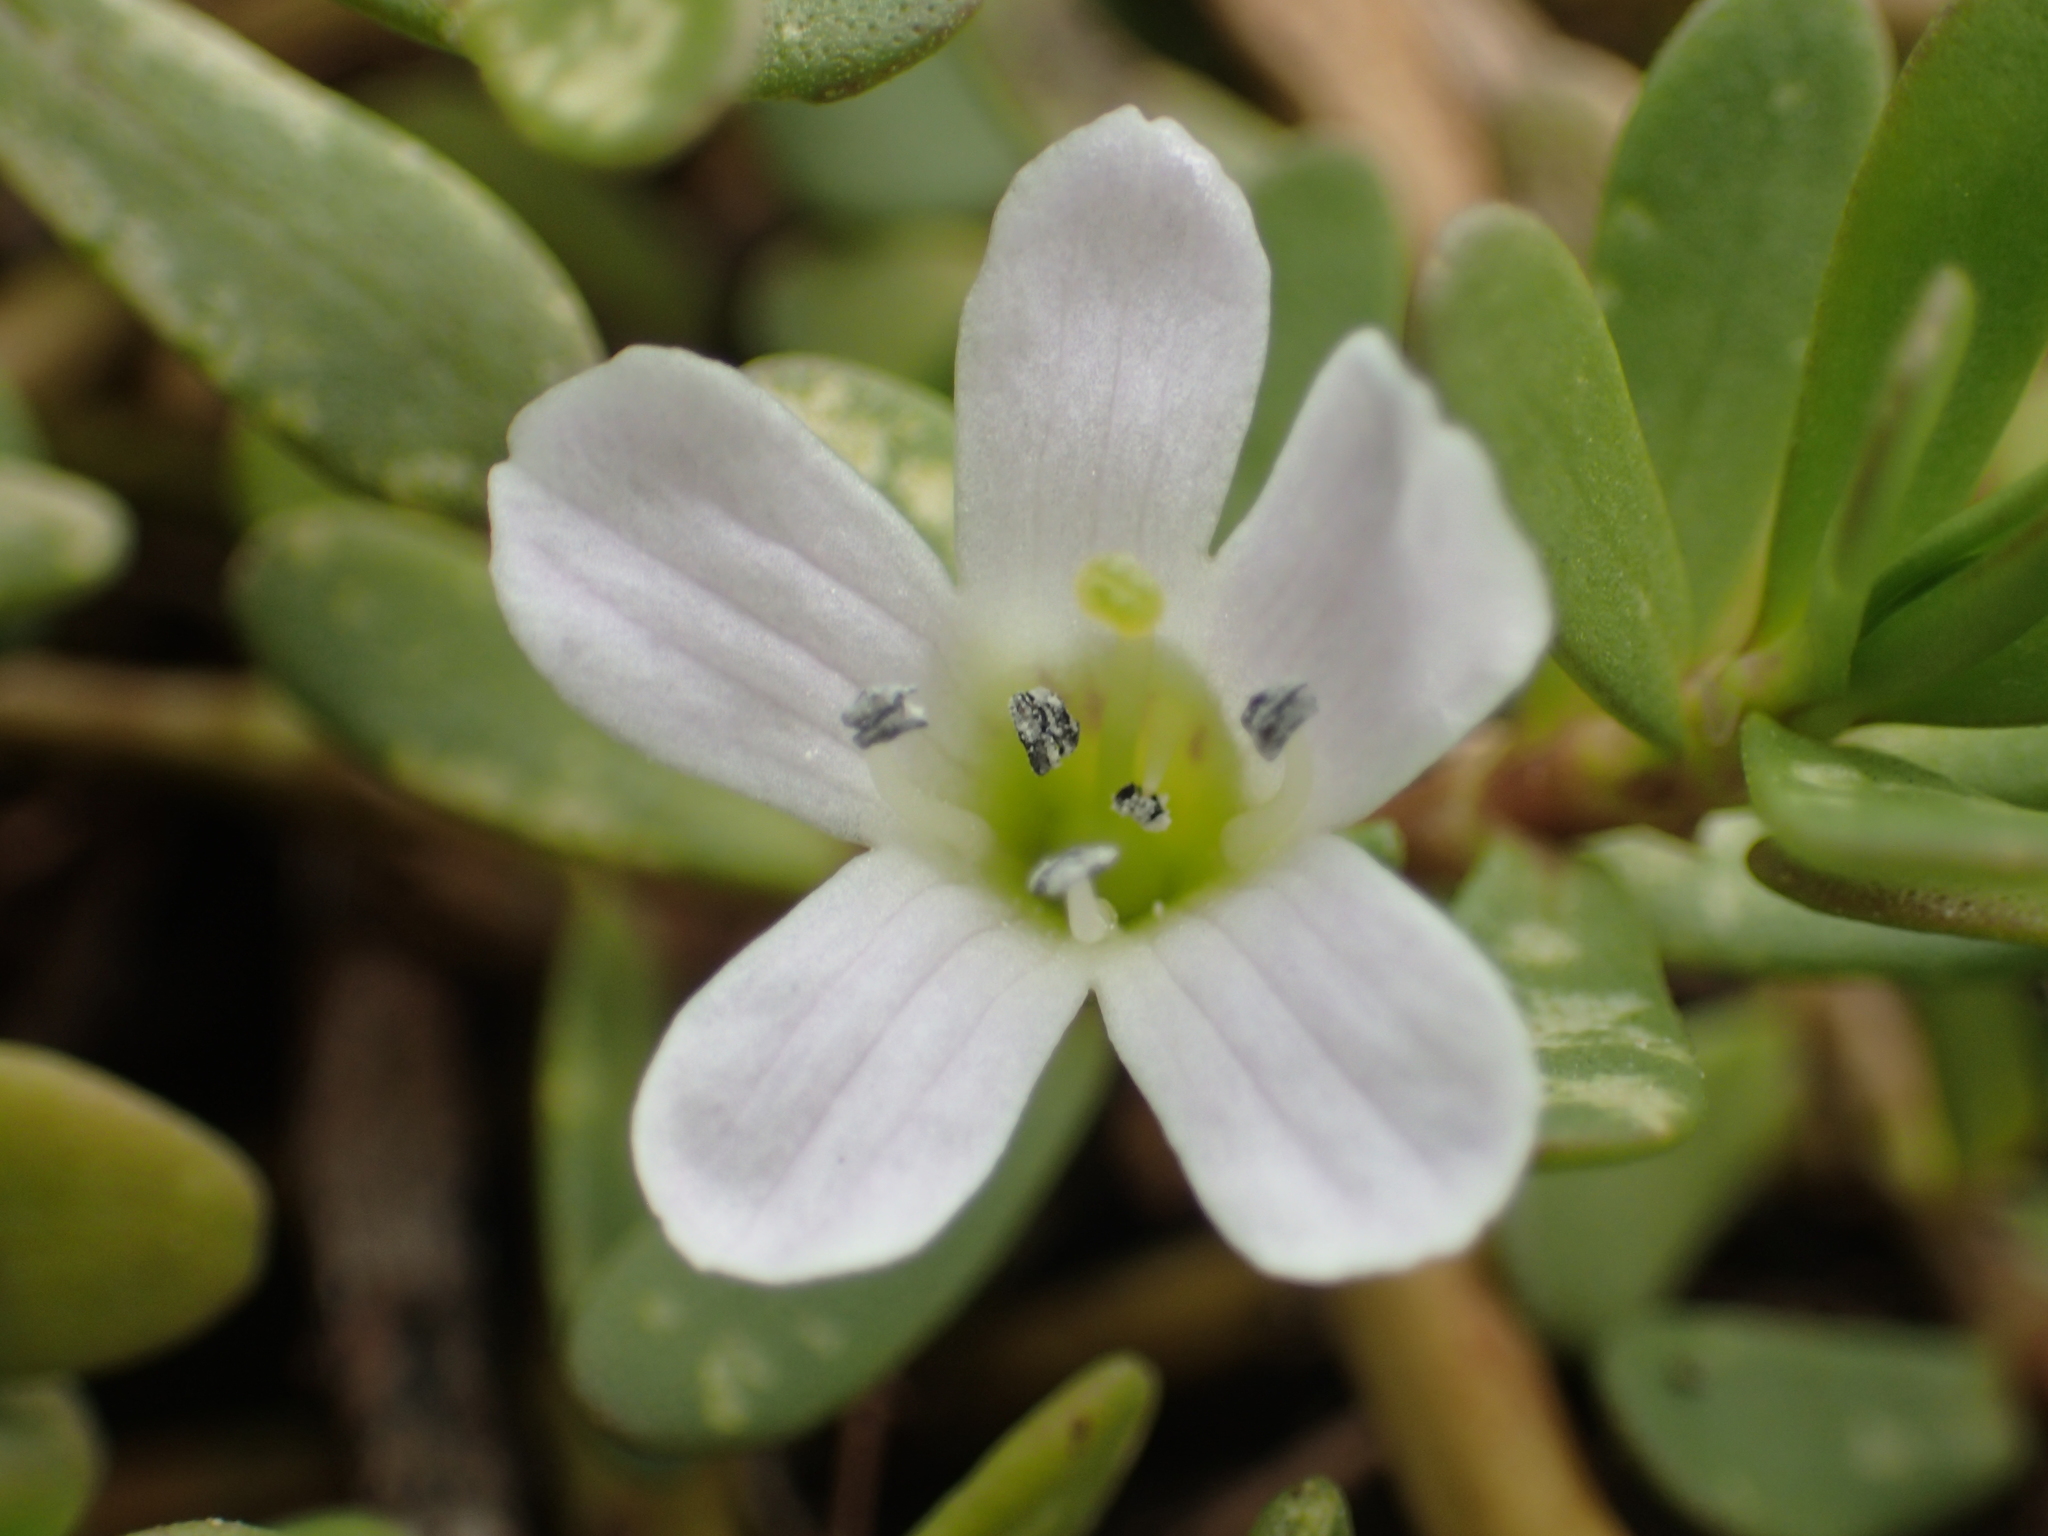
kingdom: Plantae
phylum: Tracheophyta
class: Magnoliopsida
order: Lamiales
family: Plantaginaceae
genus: Bacopa
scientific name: Bacopa monnieri
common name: Indian-pennywort
